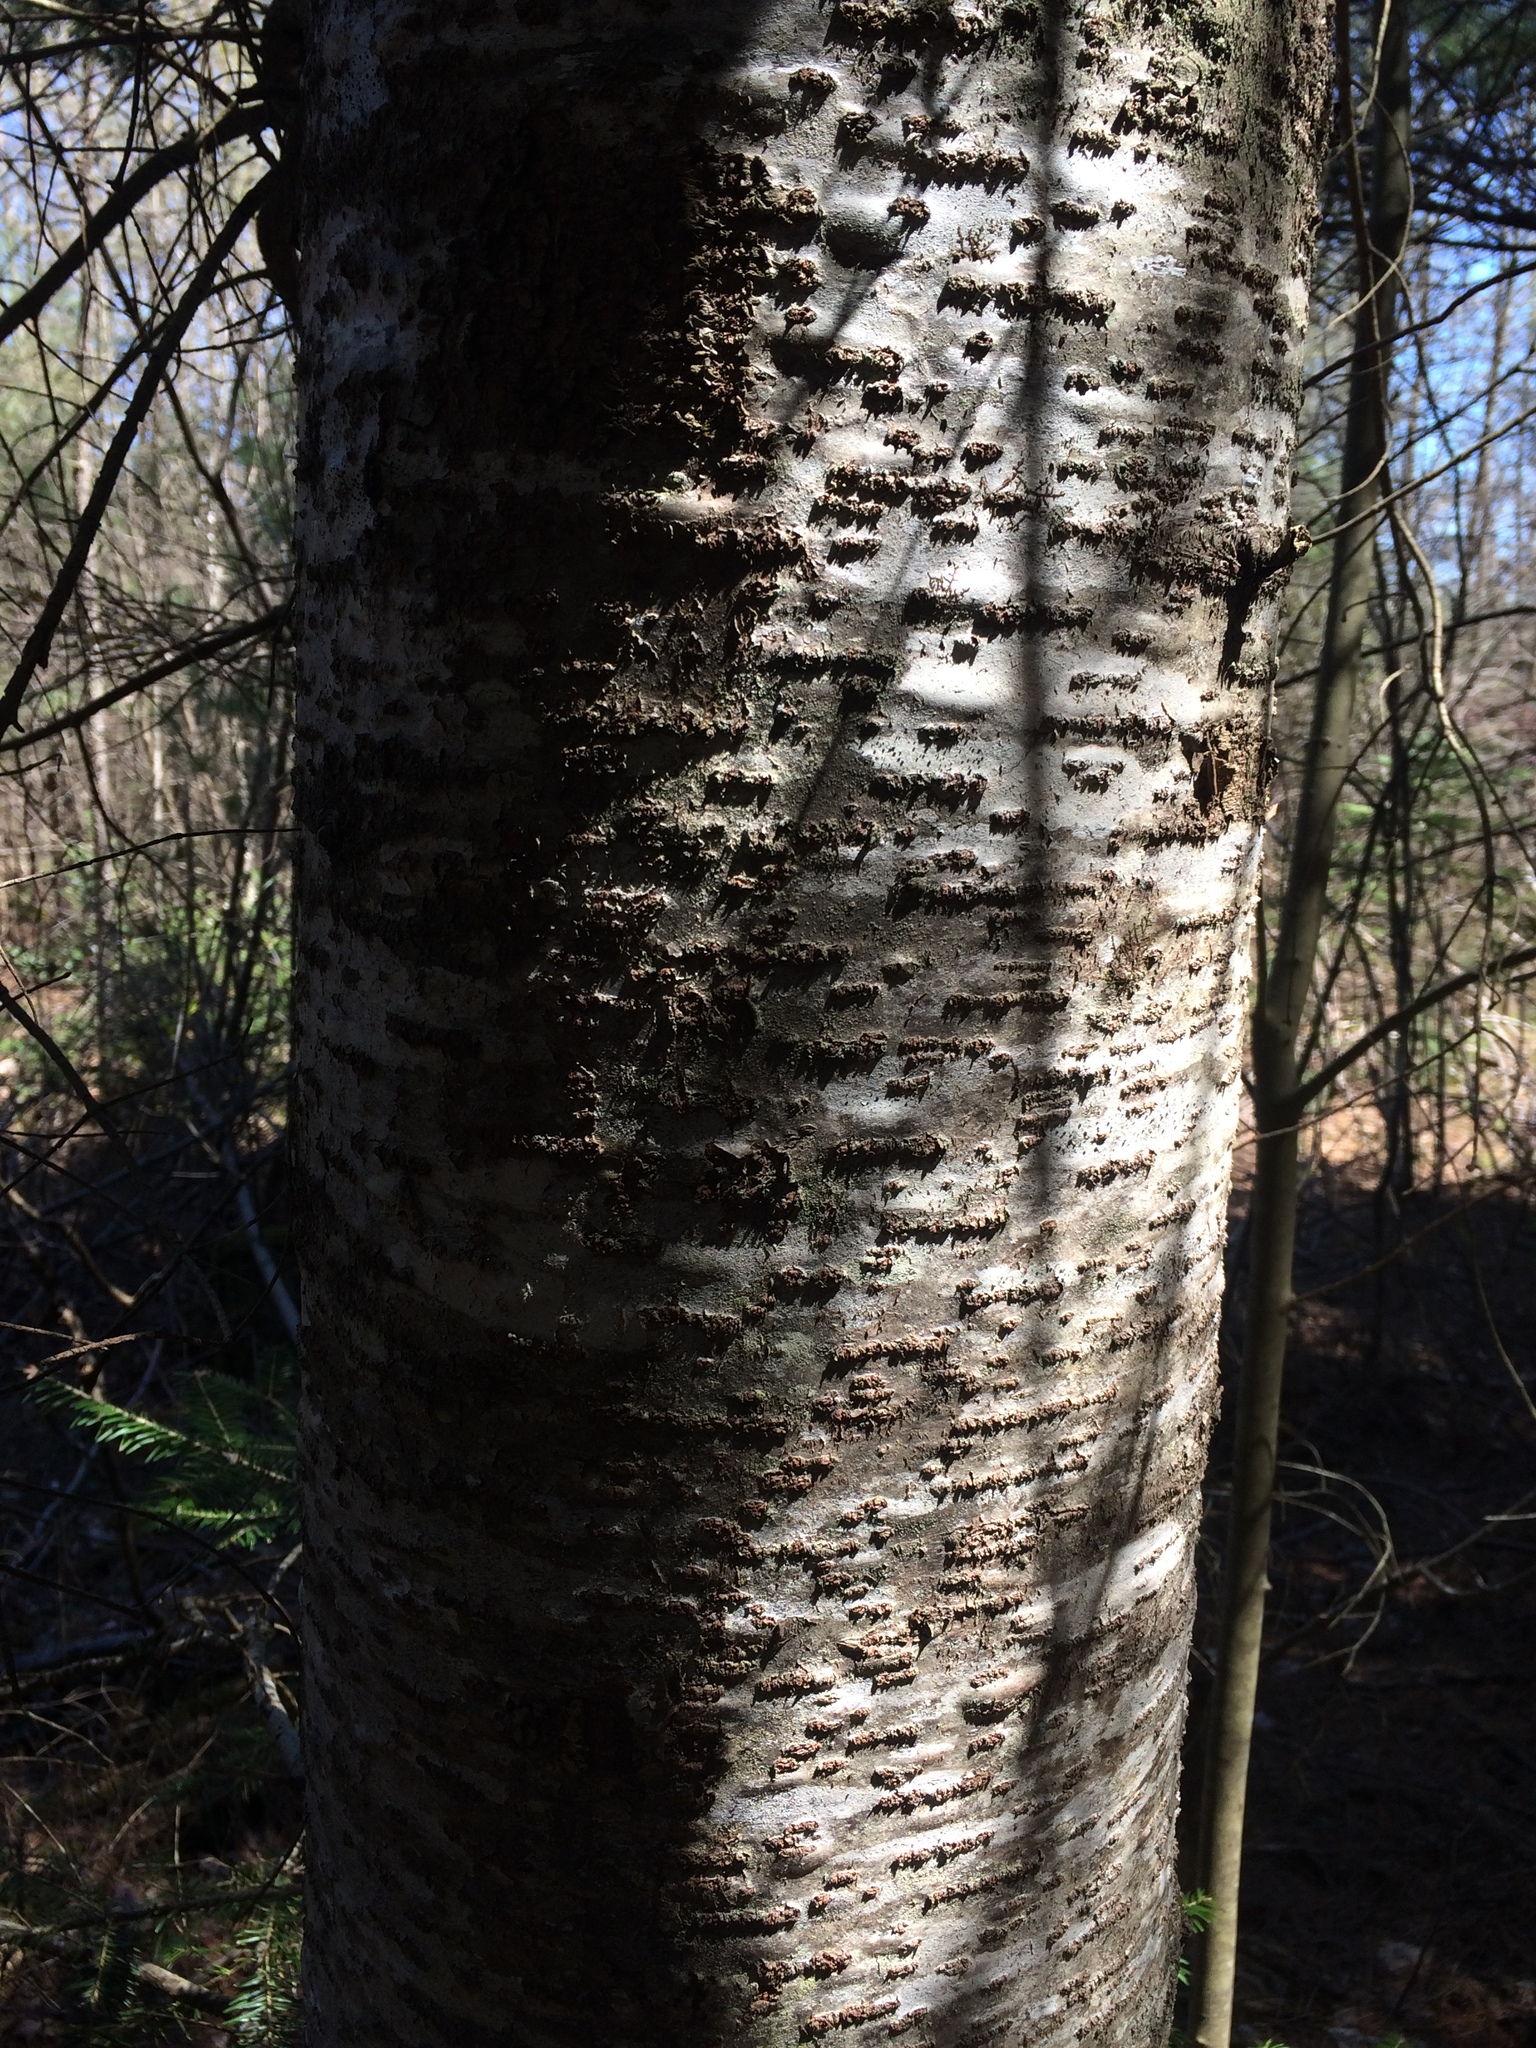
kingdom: Plantae
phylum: Tracheophyta
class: Pinopsida
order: Pinales
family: Pinaceae
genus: Abies
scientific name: Abies balsamea
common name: Balsam fir
